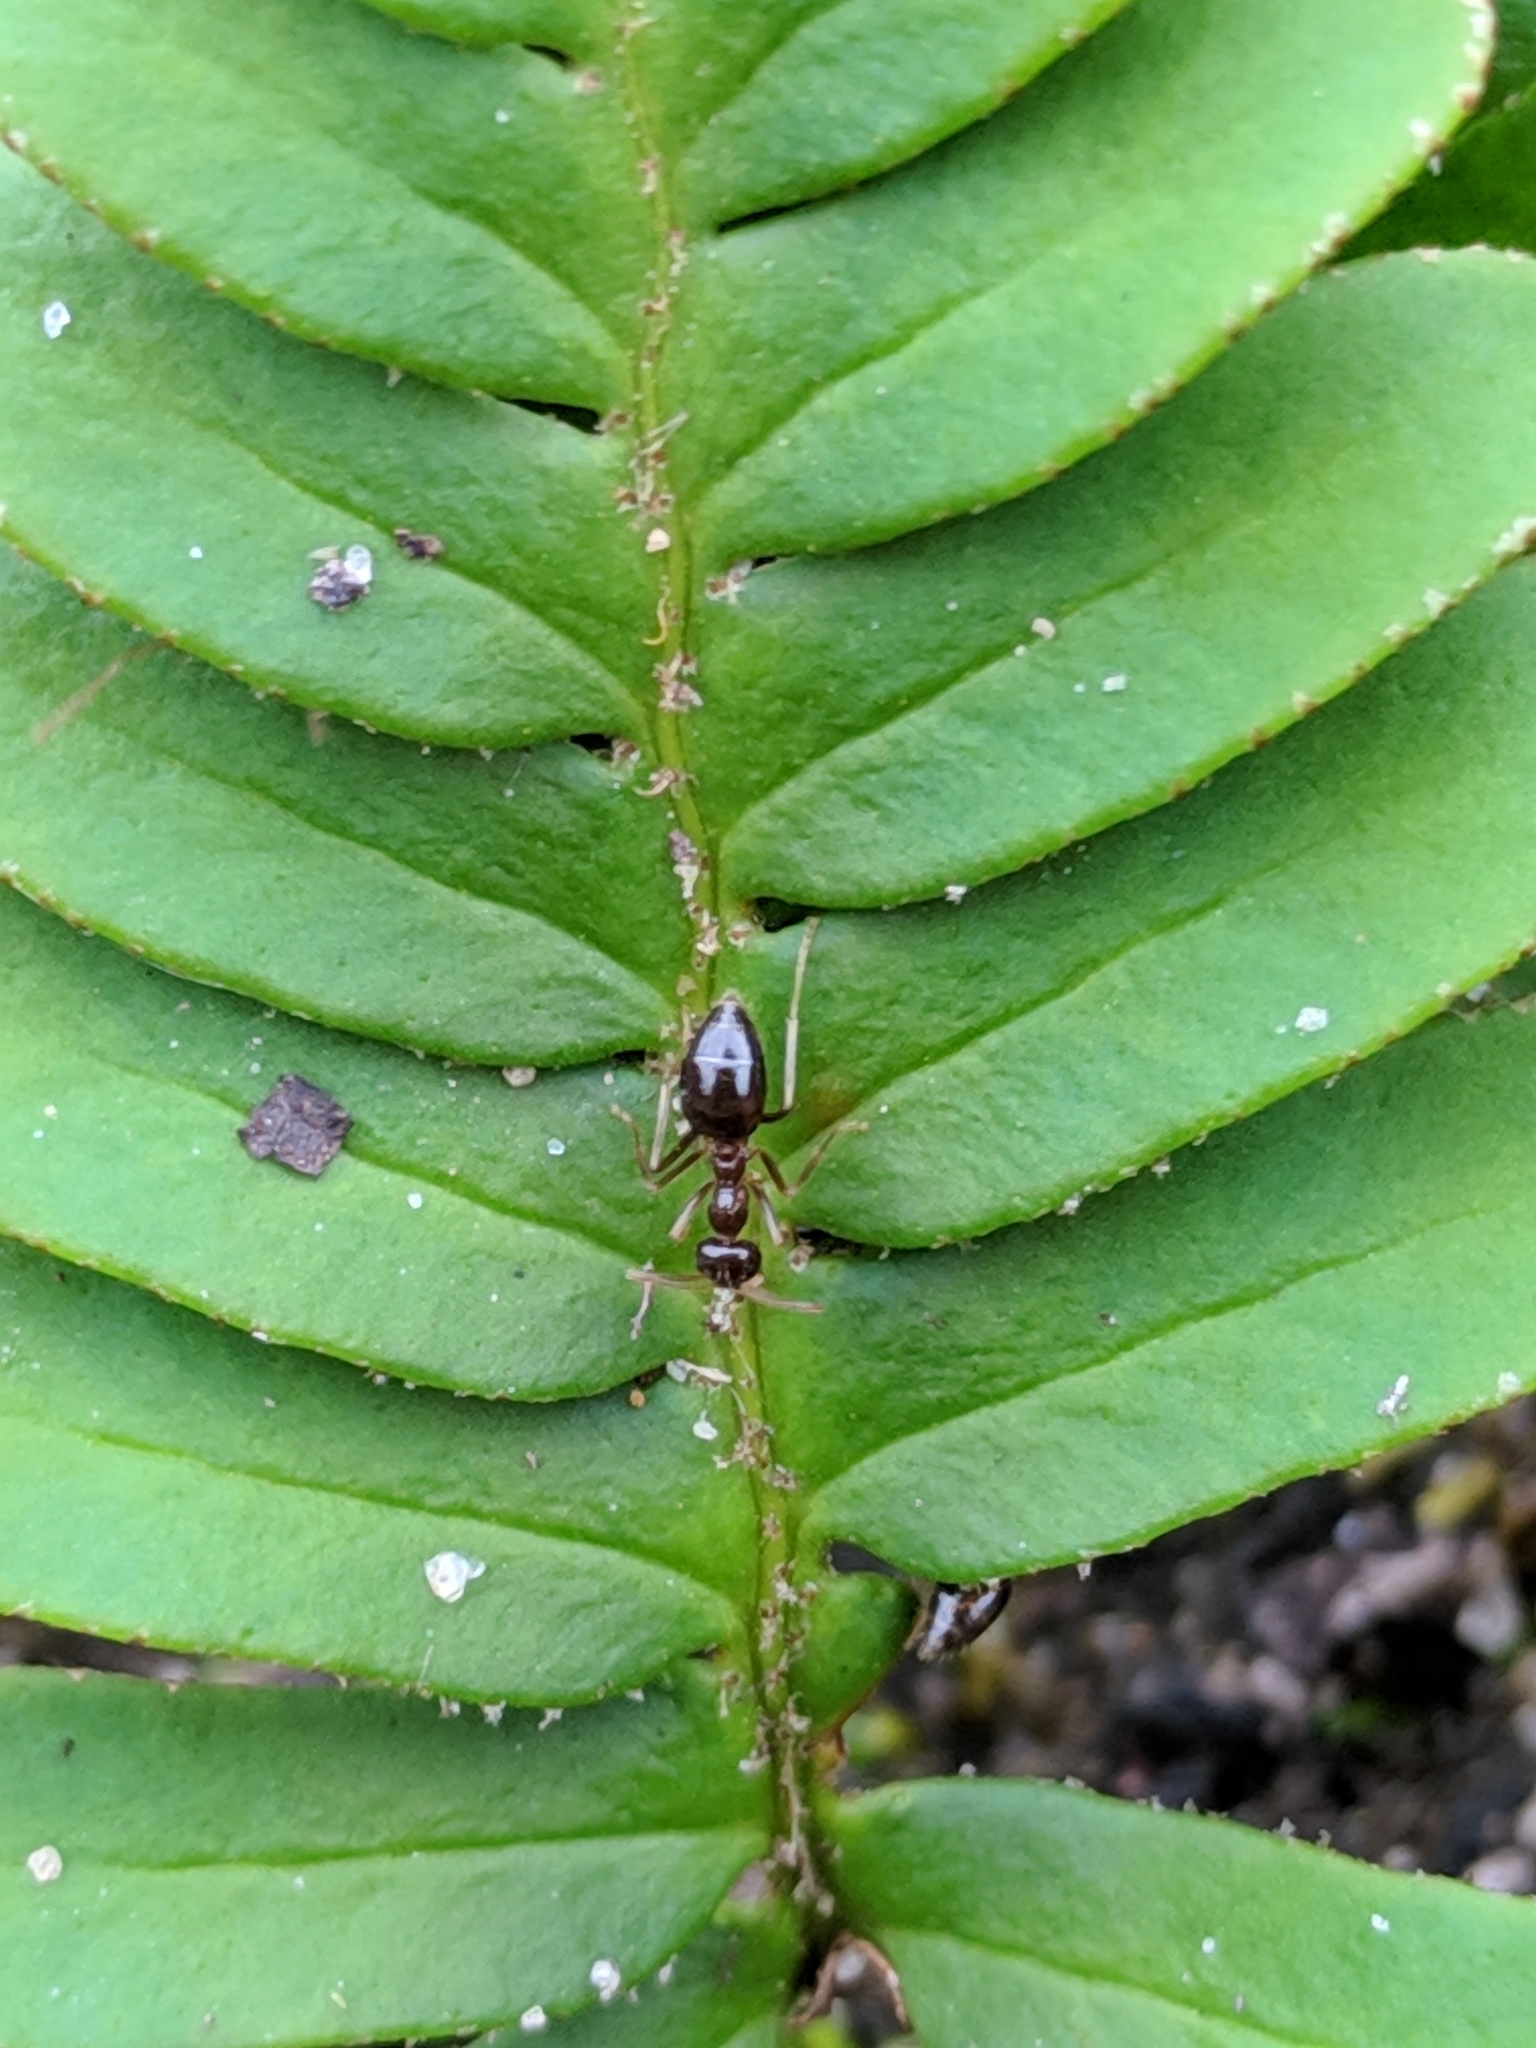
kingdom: Animalia
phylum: Arthropoda
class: Insecta
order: Hymenoptera
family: Formicidae
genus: Prenolepis
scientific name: Prenolepis imparis
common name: Small honey ant
